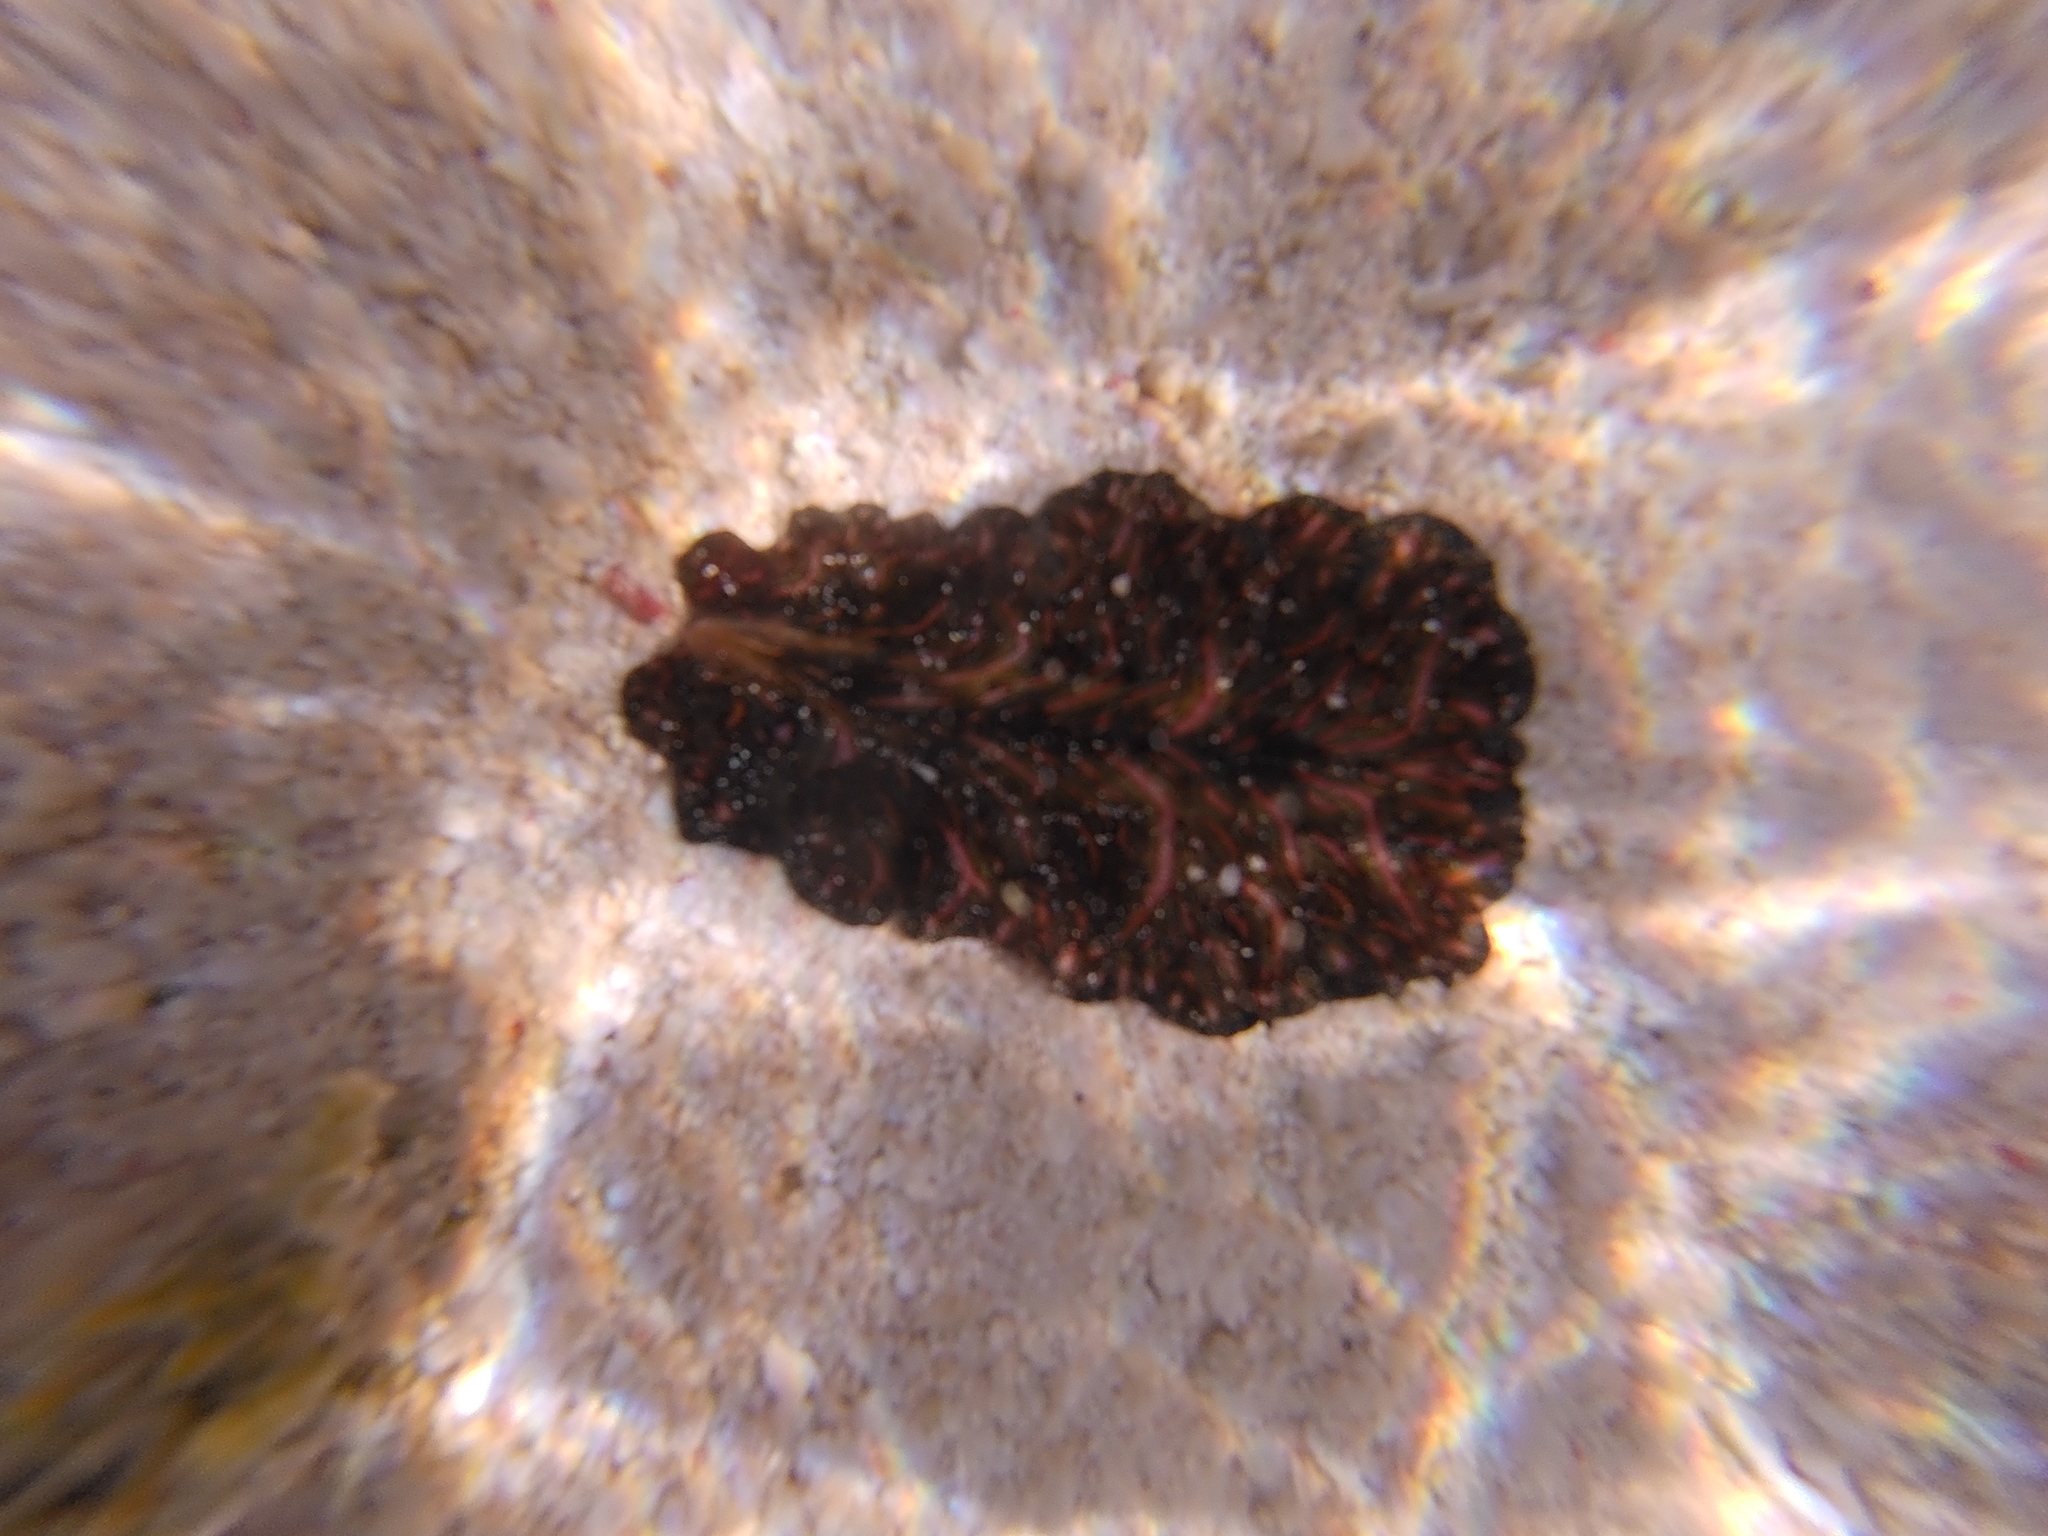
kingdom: Animalia
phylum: Platyhelminthes
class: Turbellaria
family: Pseudocerotidae
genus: Pseudobiceros
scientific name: Pseudobiceros bedfordi
